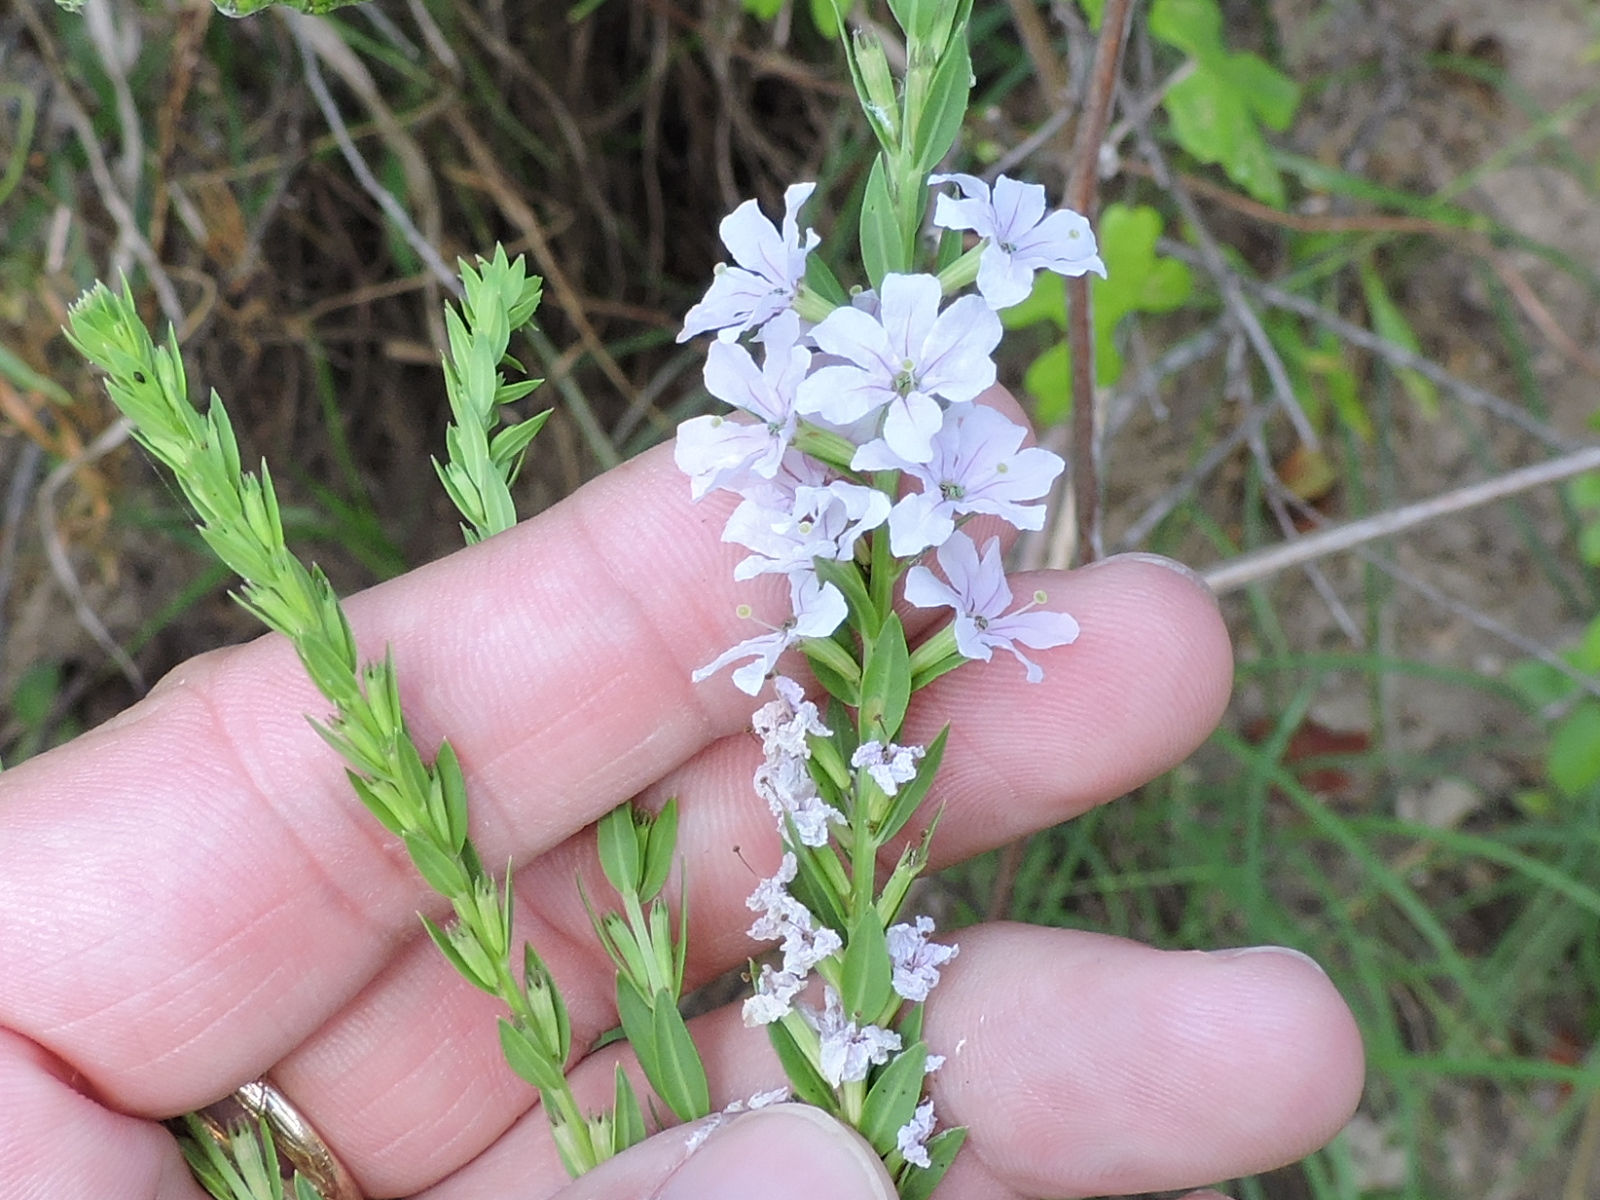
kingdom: Plantae
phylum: Tracheophyta
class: Magnoliopsida
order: Myrtales
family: Lythraceae
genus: Lythrum
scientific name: Lythrum alatum
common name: Winged loosestrife
